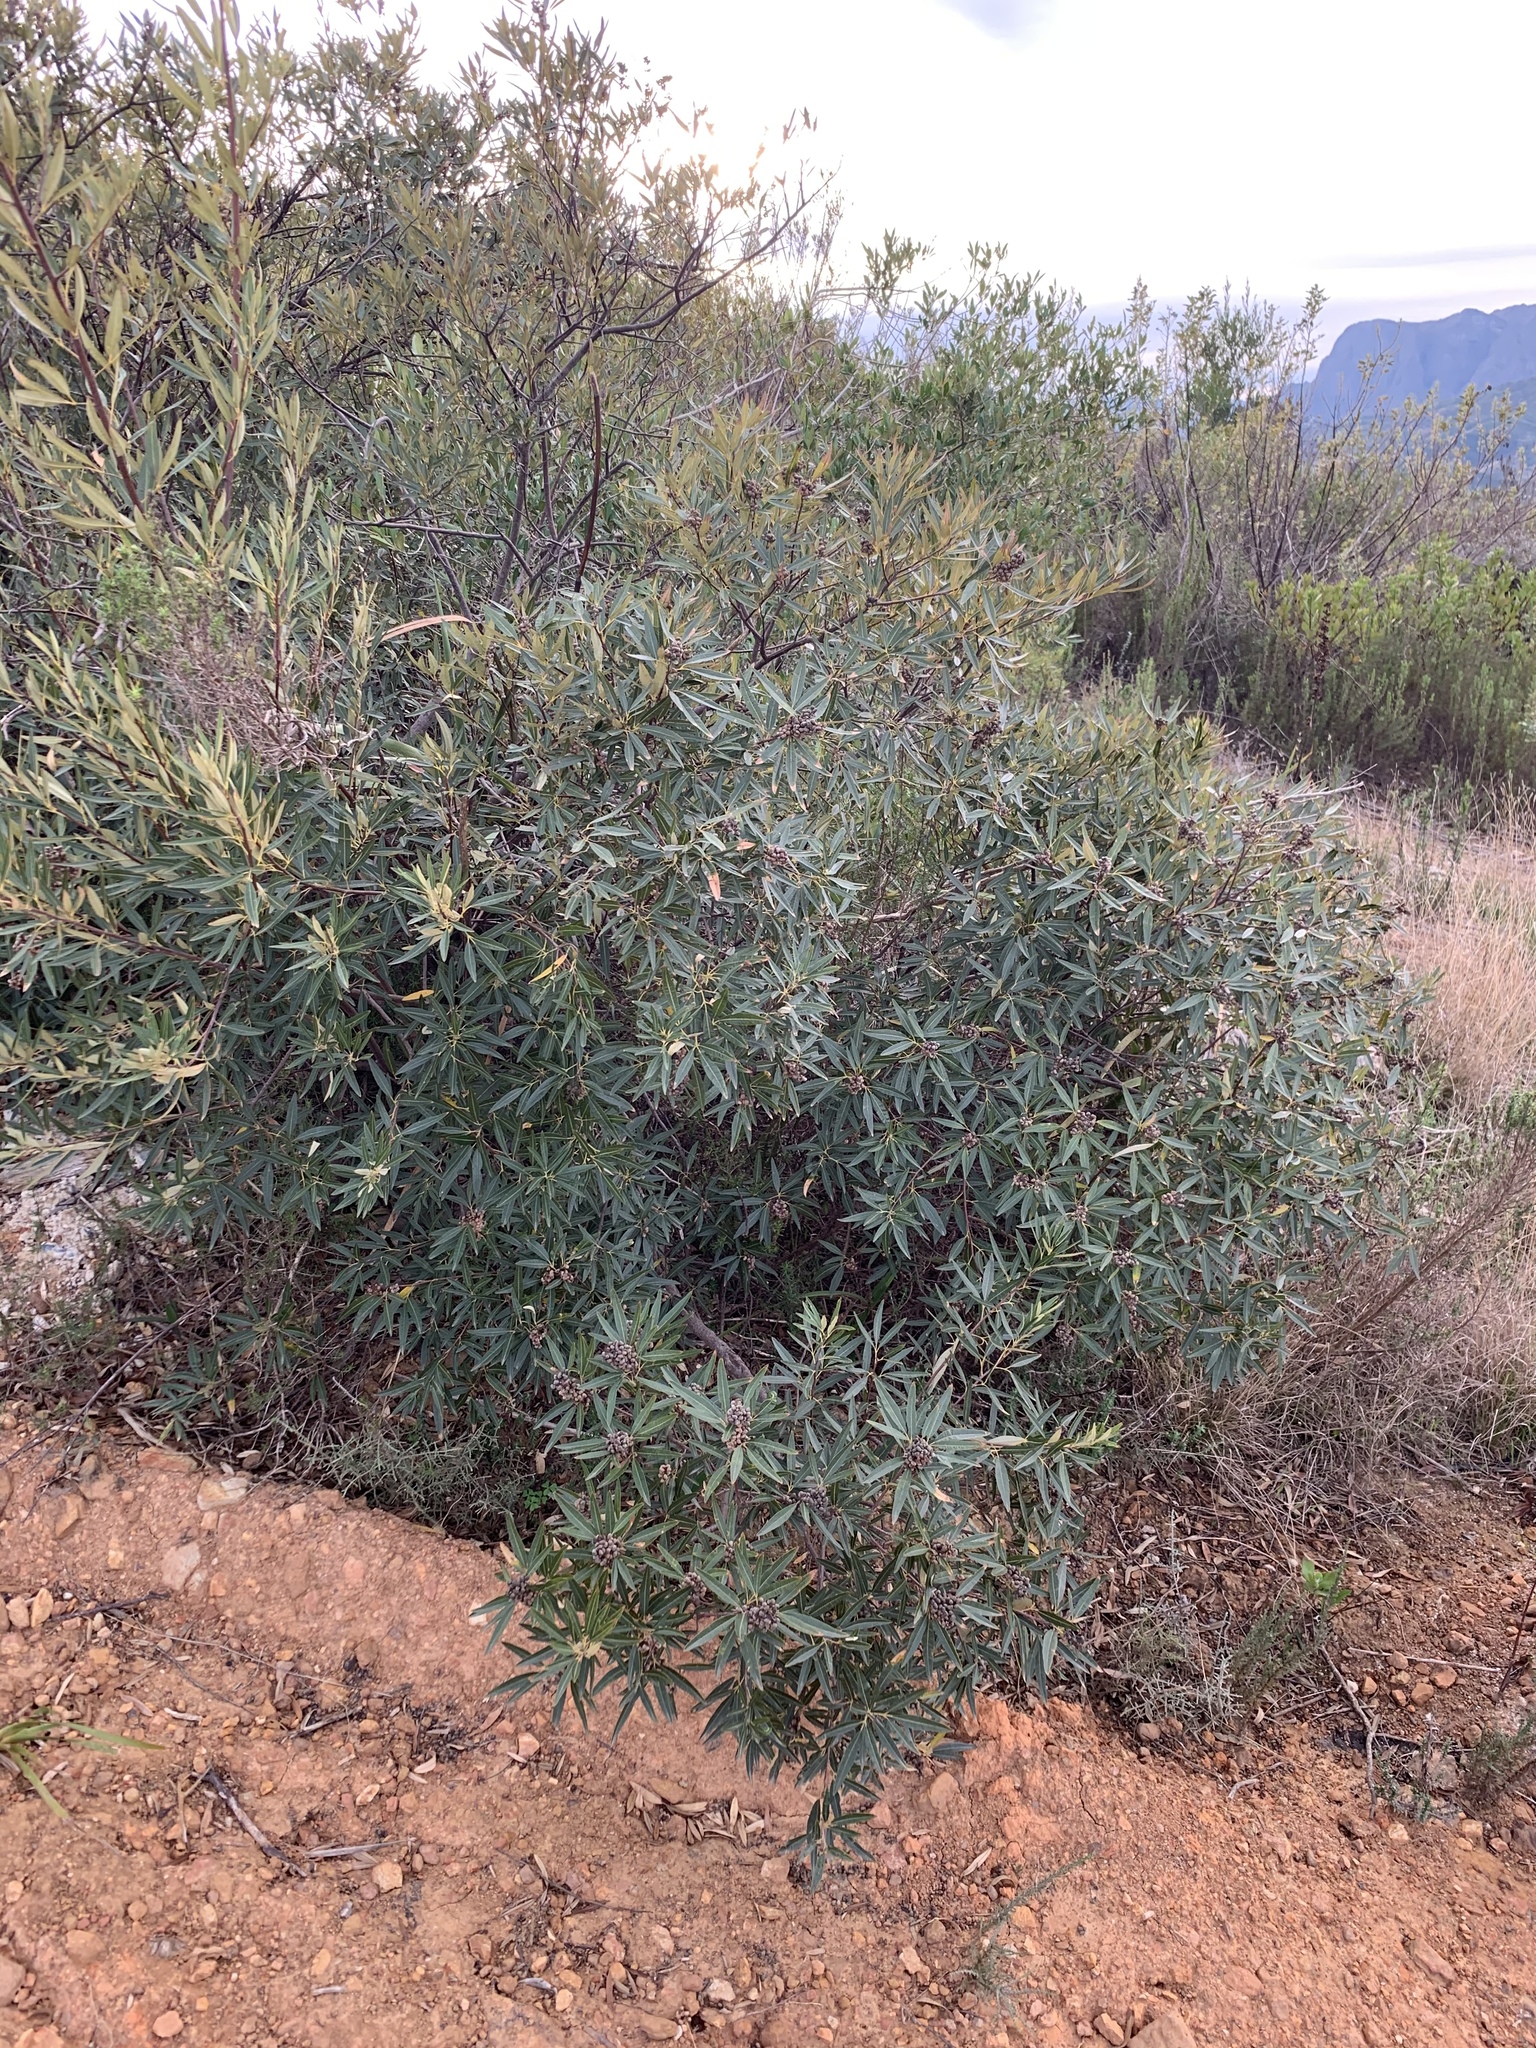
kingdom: Plantae
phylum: Tracheophyta
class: Magnoliopsida
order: Sapindales
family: Anacardiaceae
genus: Searsia
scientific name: Searsia angustifolia
